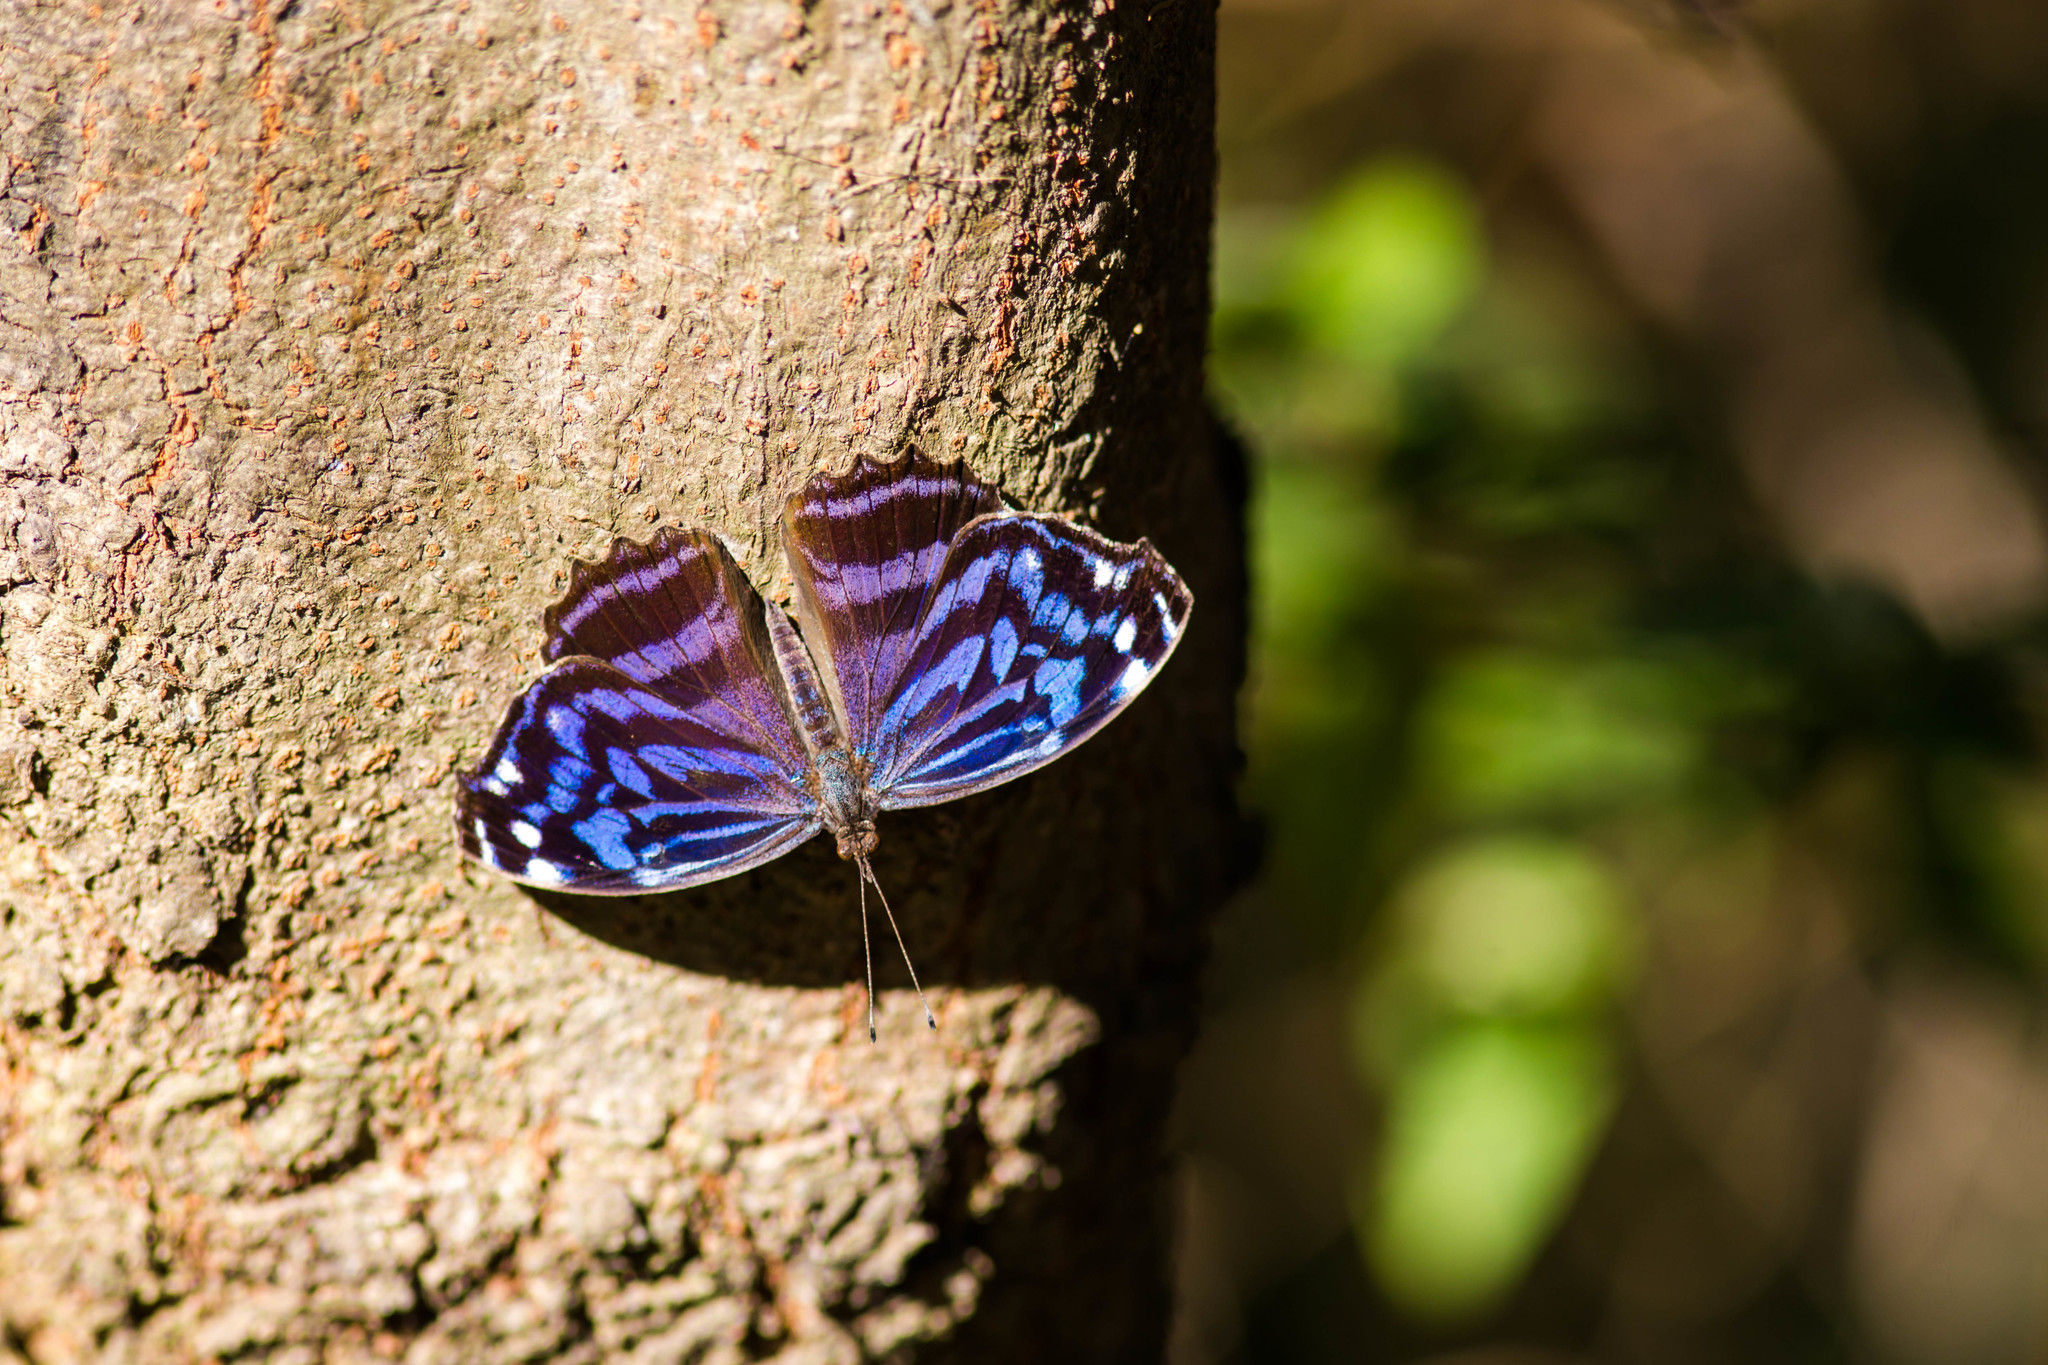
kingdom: Animalia
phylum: Arthropoda
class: Insecta
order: Lepidoptera
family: Nymphalidae
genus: Myscelia
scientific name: Myscelia ethusa
